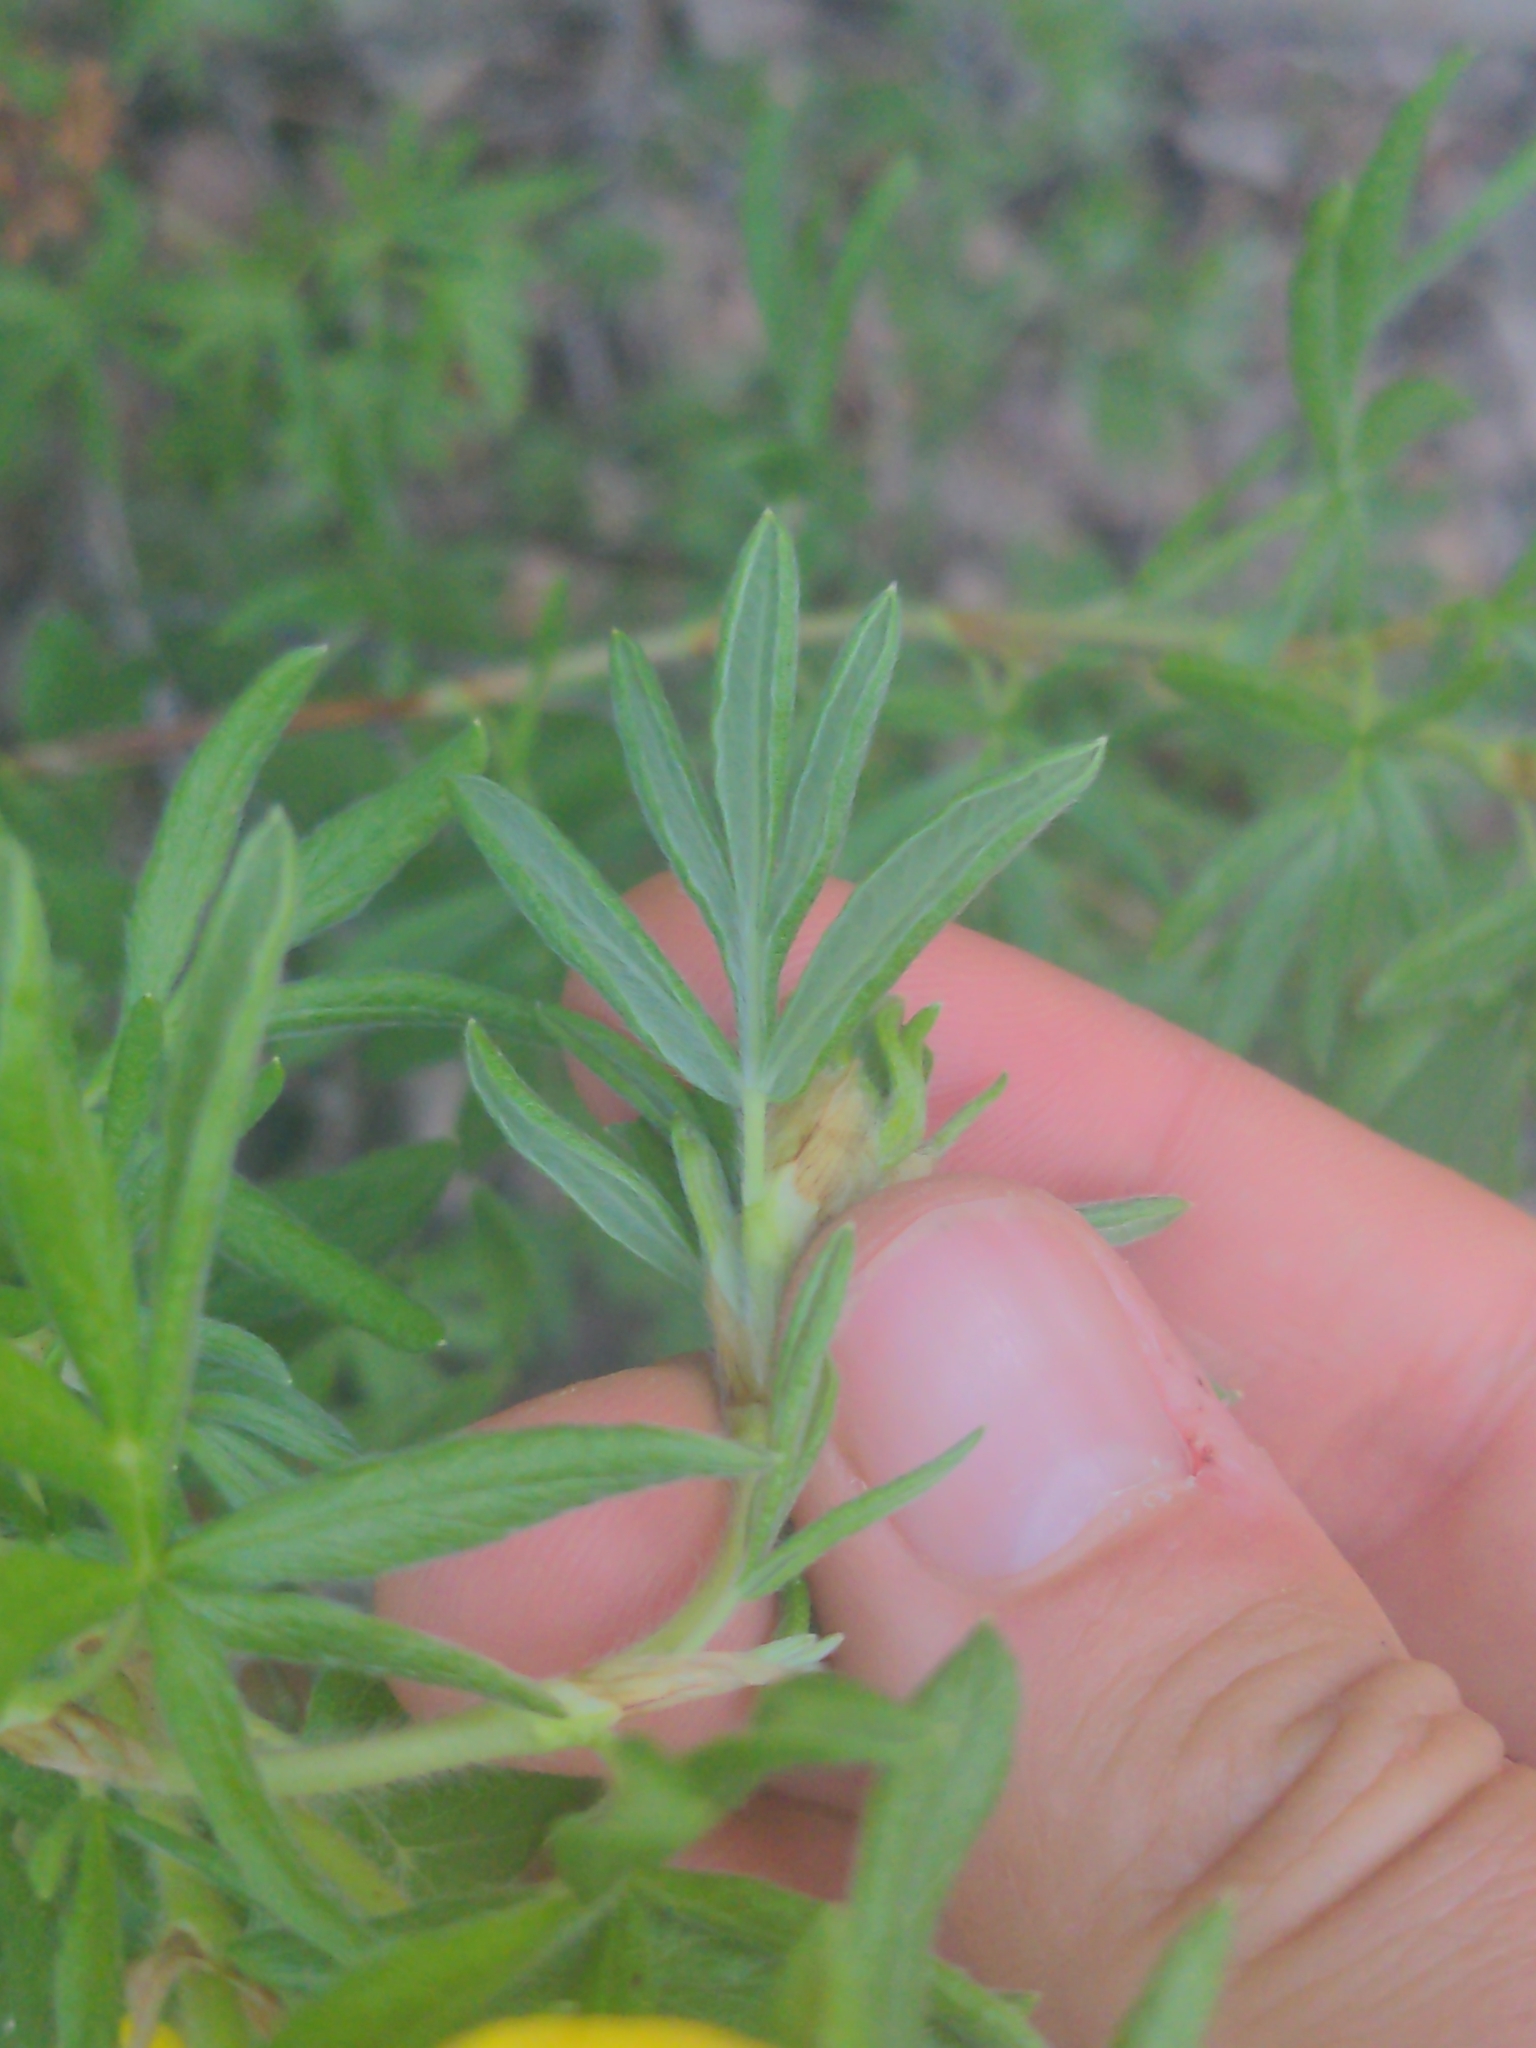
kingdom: Plantae
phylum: Tracheophyta
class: Magnoliopsida
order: Rosales
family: Rosaceae
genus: Dasiphora
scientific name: Dasiphora fruticosa
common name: Shrubby cinquefoil
